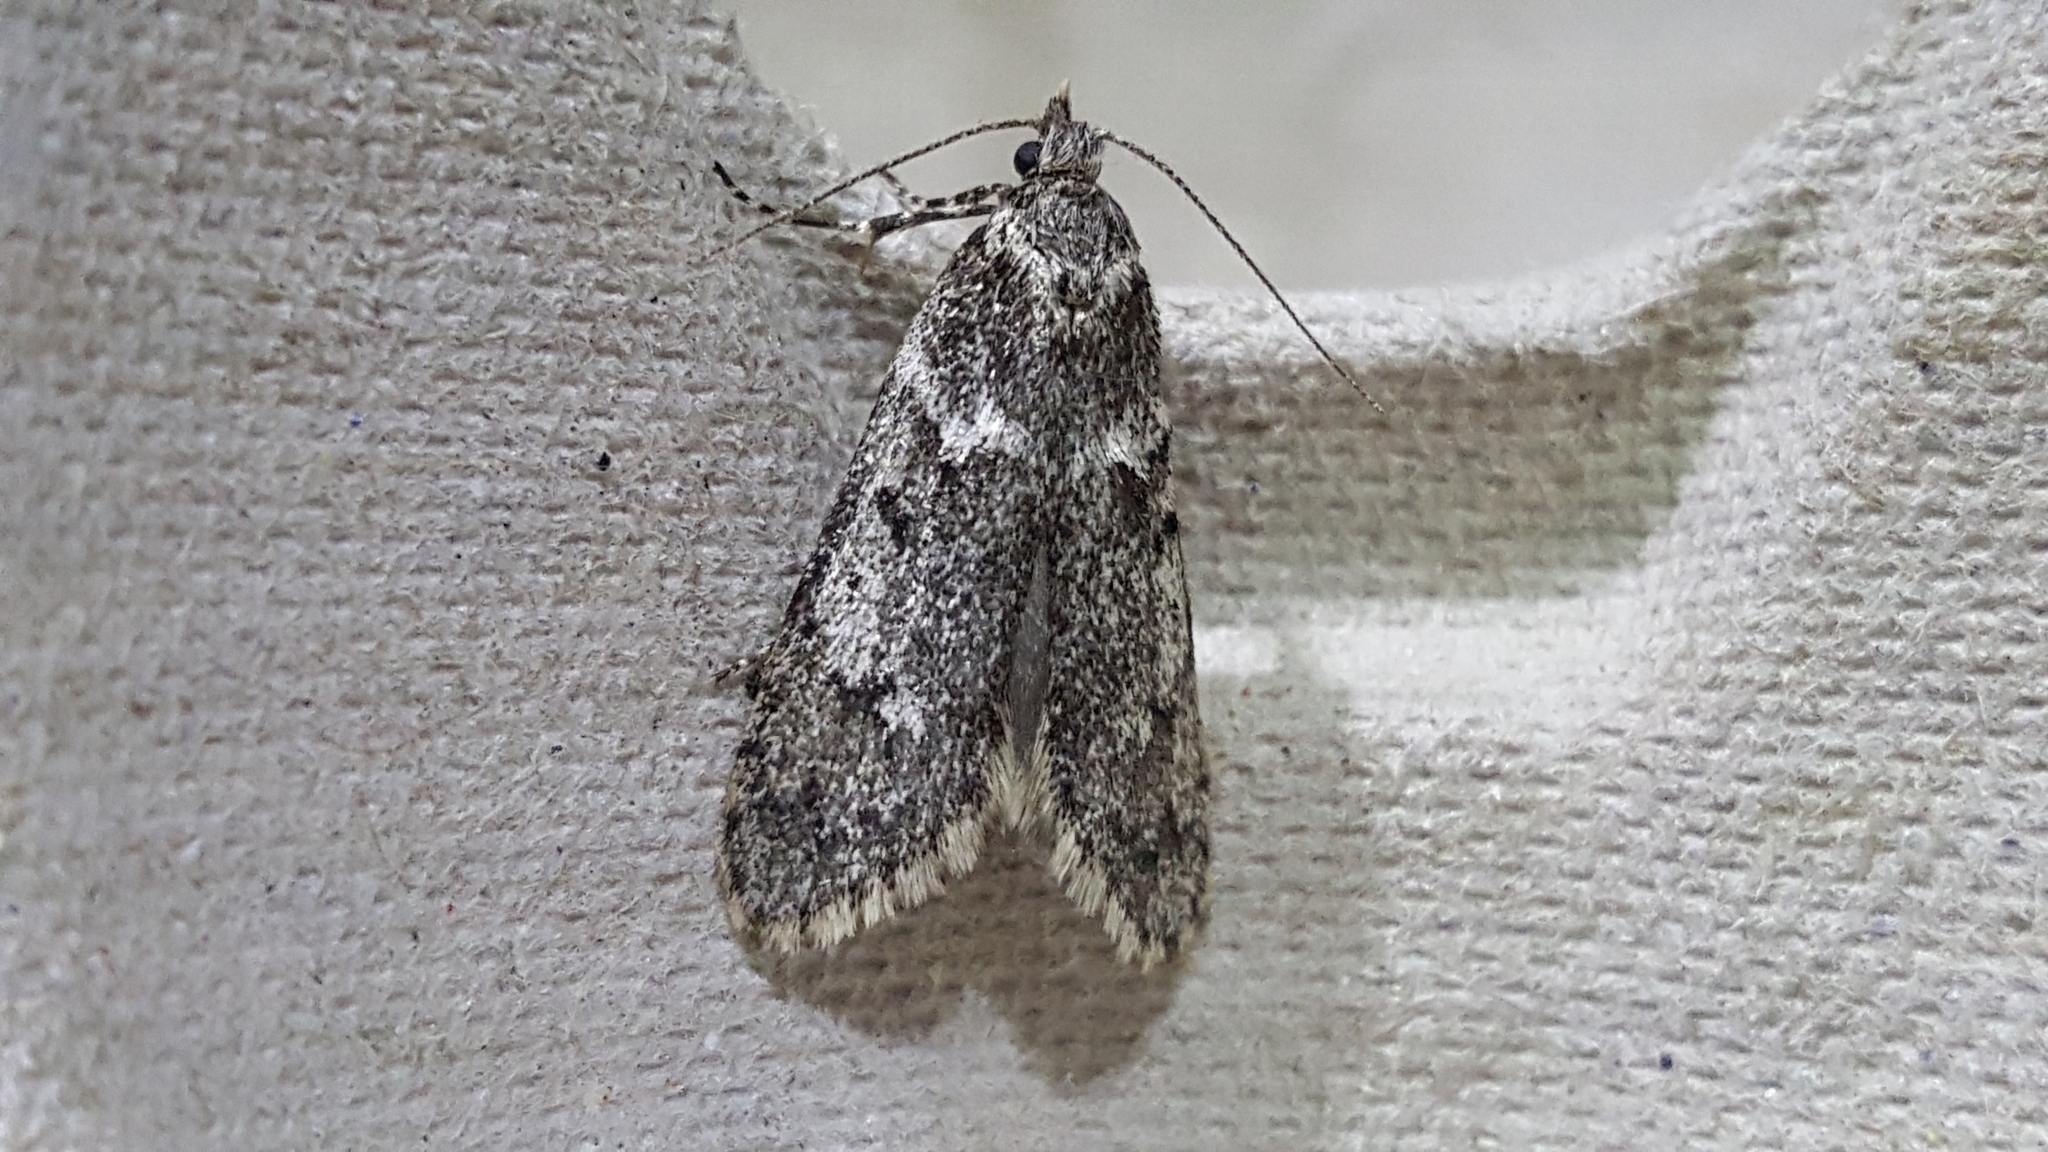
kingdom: Animalia
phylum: Arthropoda
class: Insecta
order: Lepidoptera
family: Lypusidae
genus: Diurnea
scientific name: Diurnea fagella
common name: March tubic
